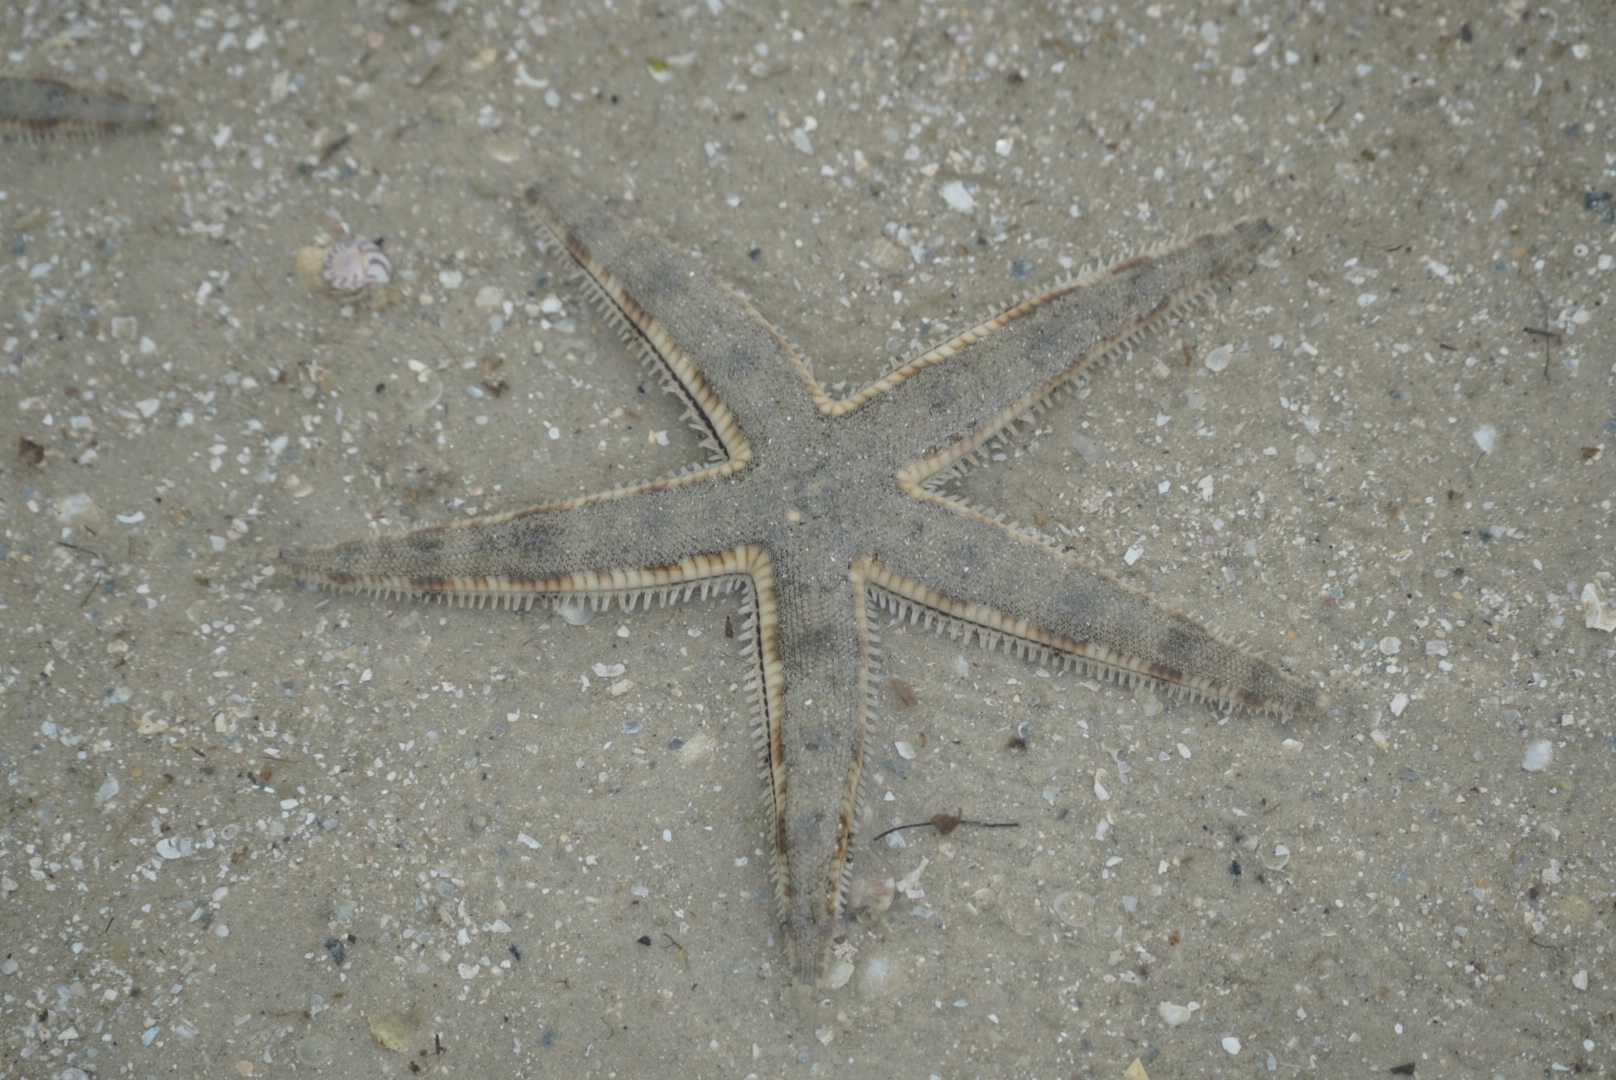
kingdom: Animalia
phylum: Echinodermata
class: Asteroidea
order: Valvatida
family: Archasteridae
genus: Archaster
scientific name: Archaster typicus
